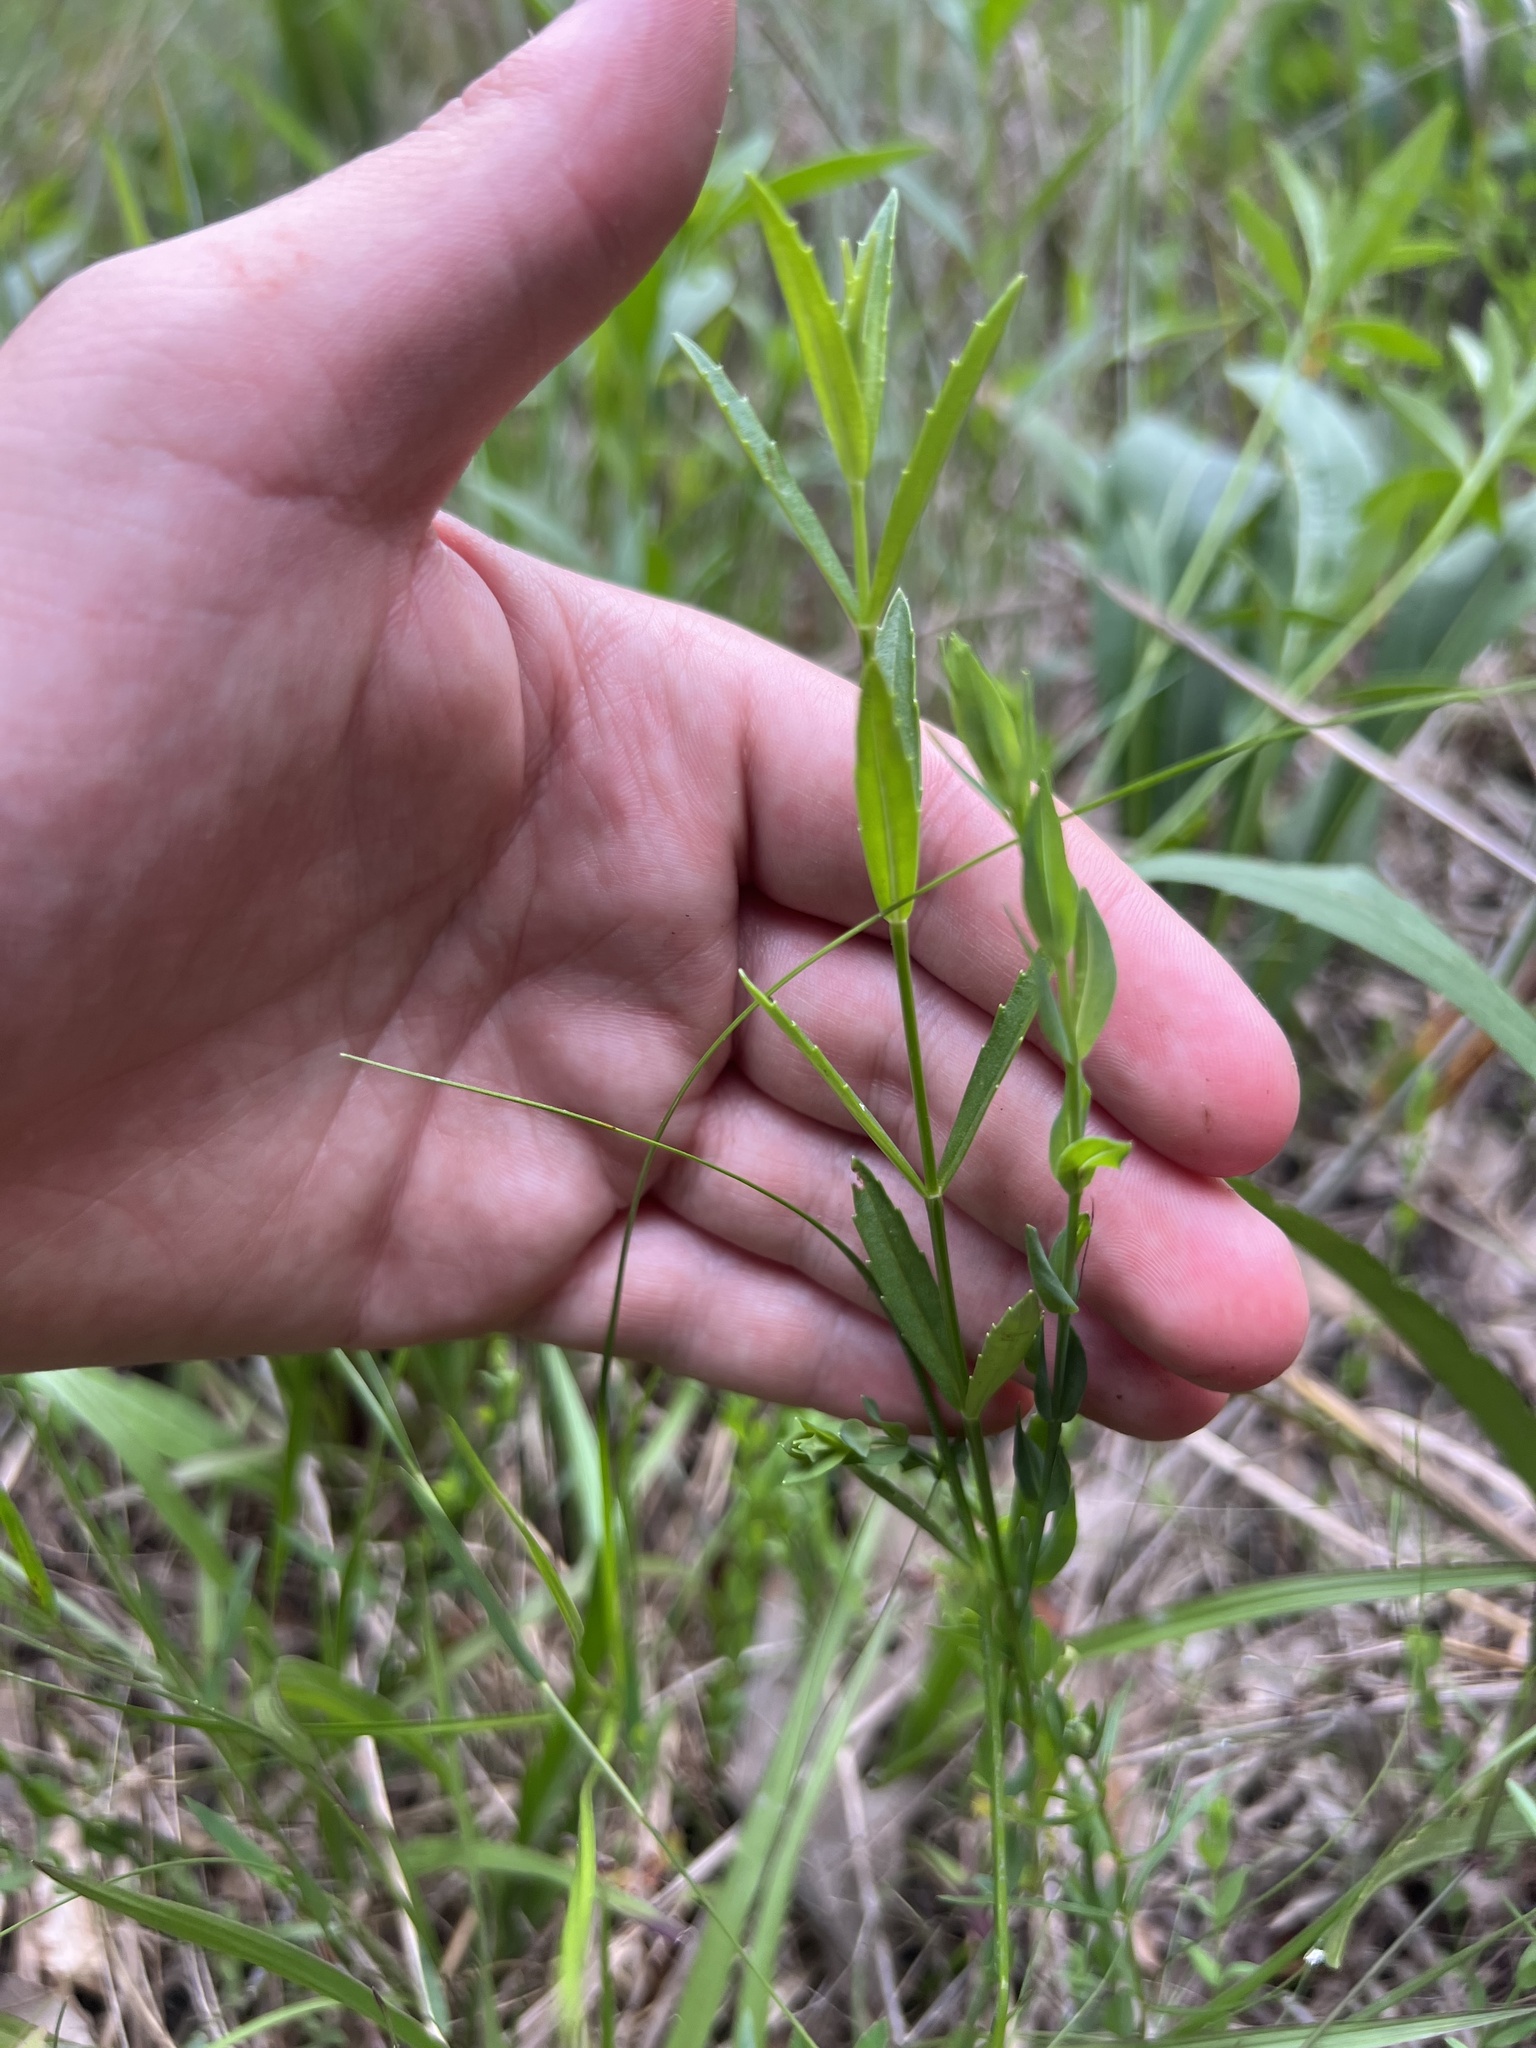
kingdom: Plantae
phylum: Tracheophyta
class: Magnoliopsida
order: Lamiales
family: Lamiaceae
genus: Physostegia
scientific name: Physostegia virginiana
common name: Obedient-plant
